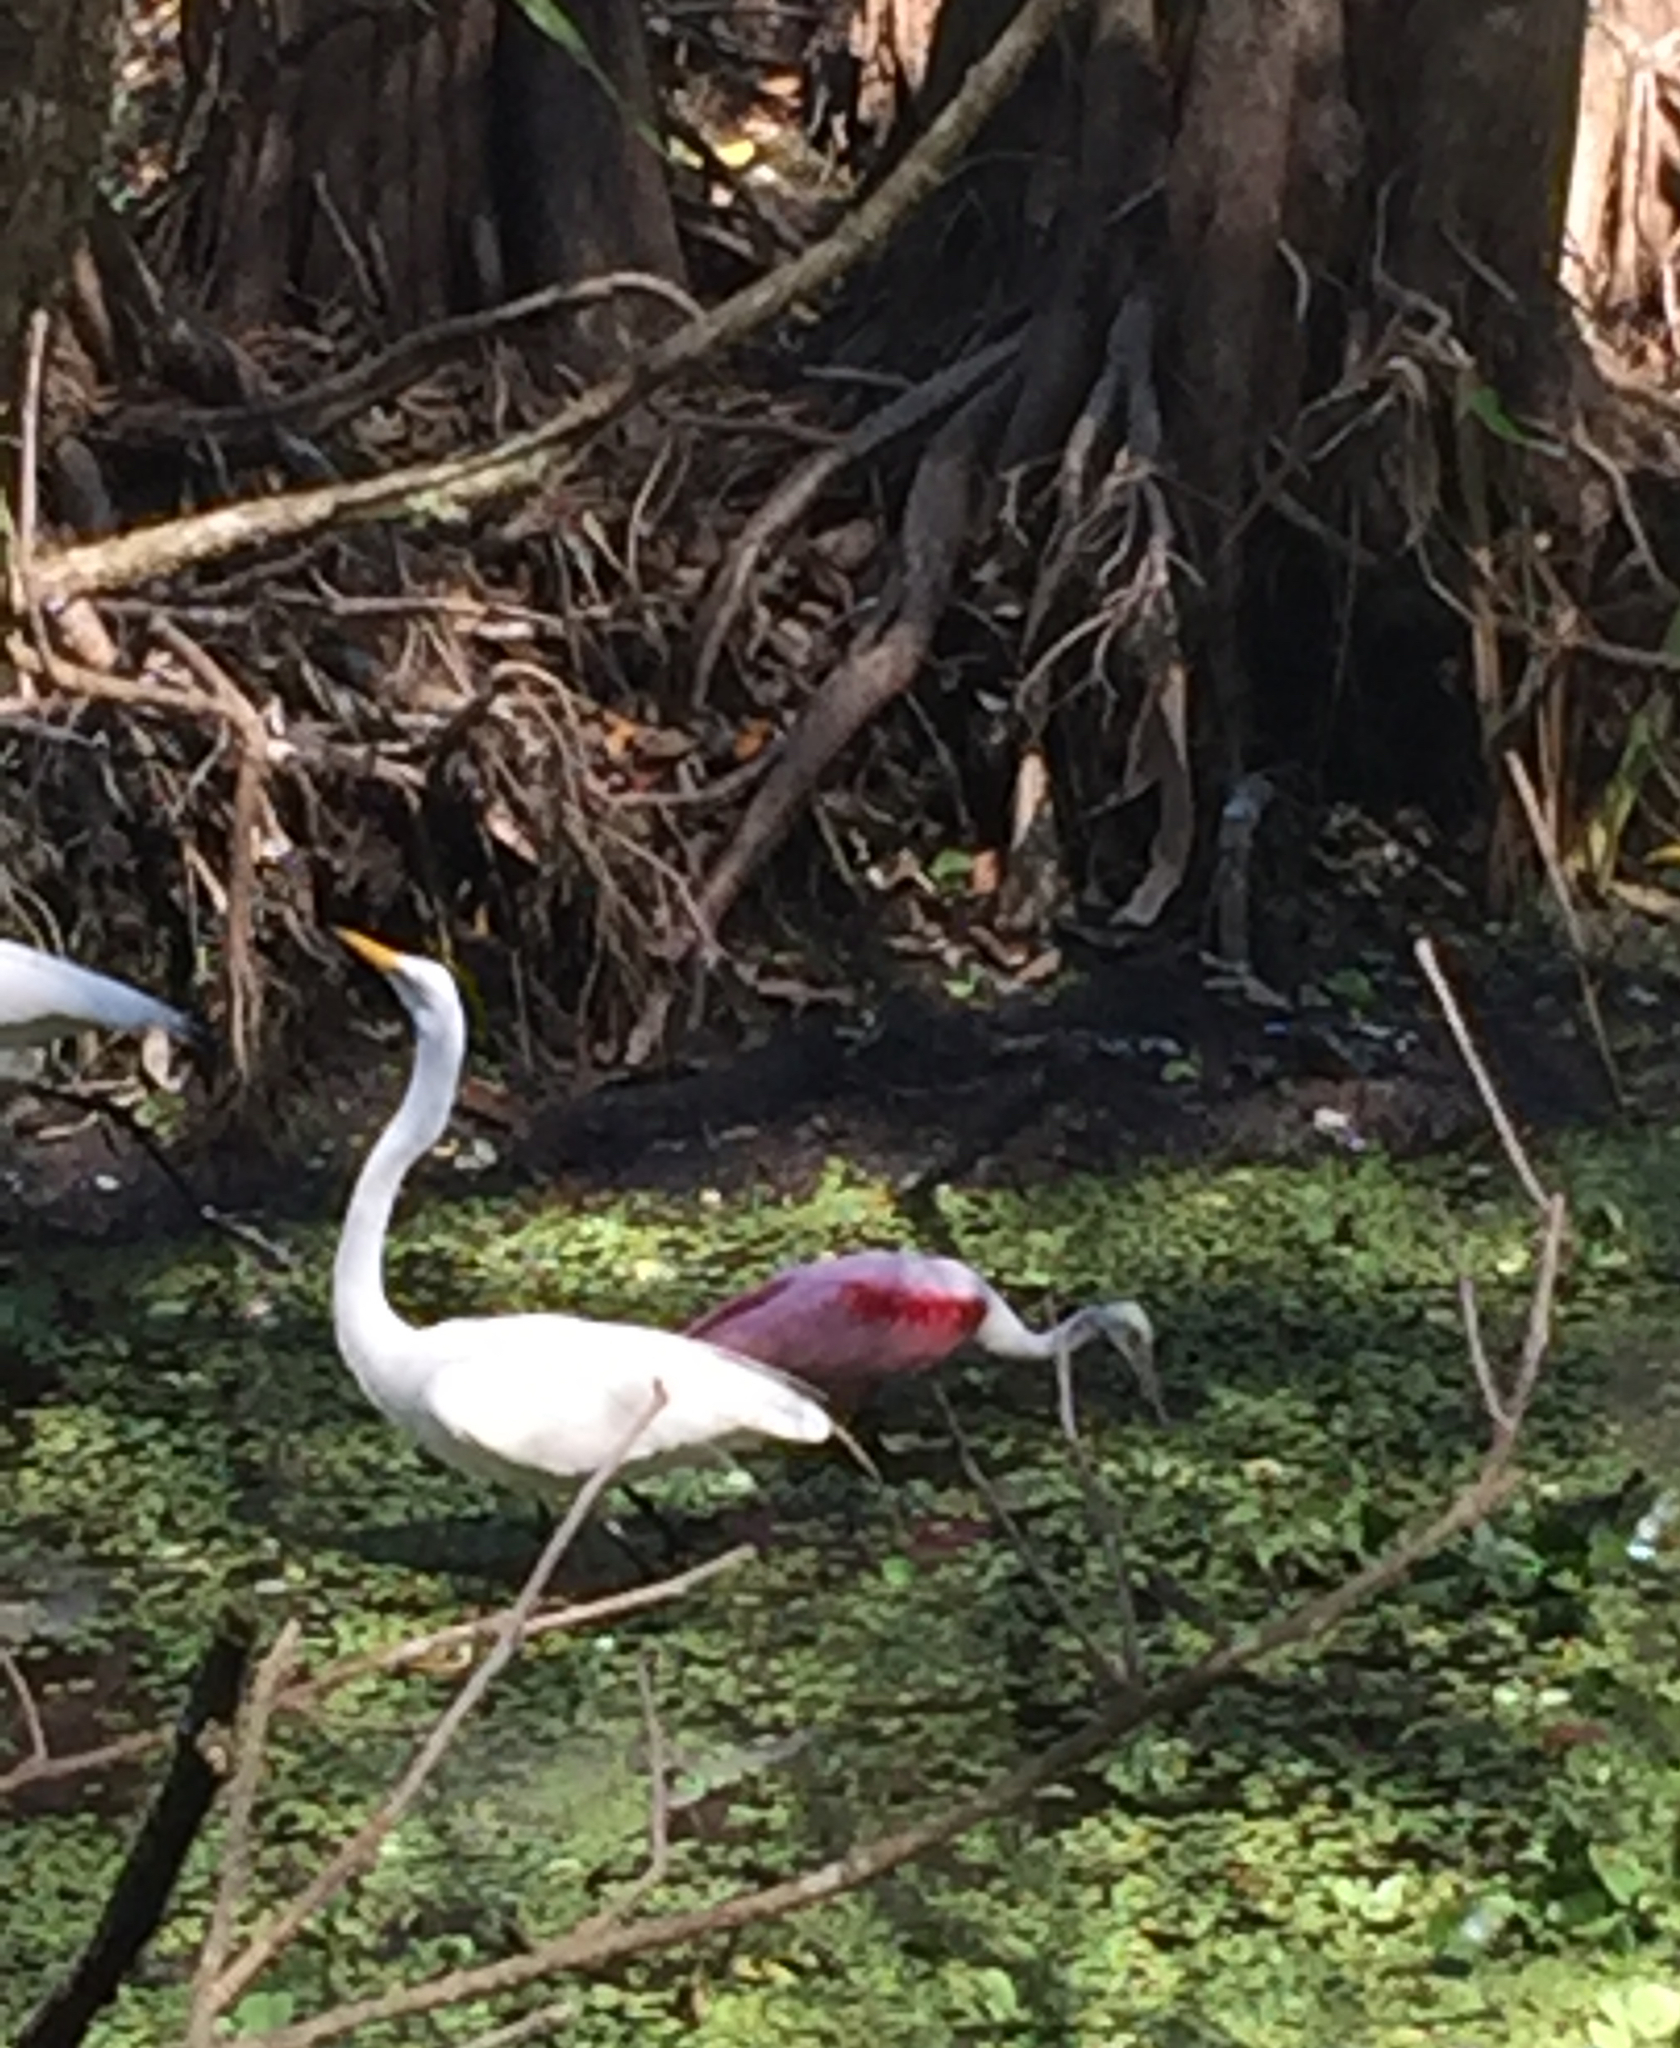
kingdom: Animalia
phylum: Chordata
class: Aves
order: Pelecaniformes
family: Threskiornithidae
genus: Platalea
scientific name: Platalea ajaja
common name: Roseate spoonbill
